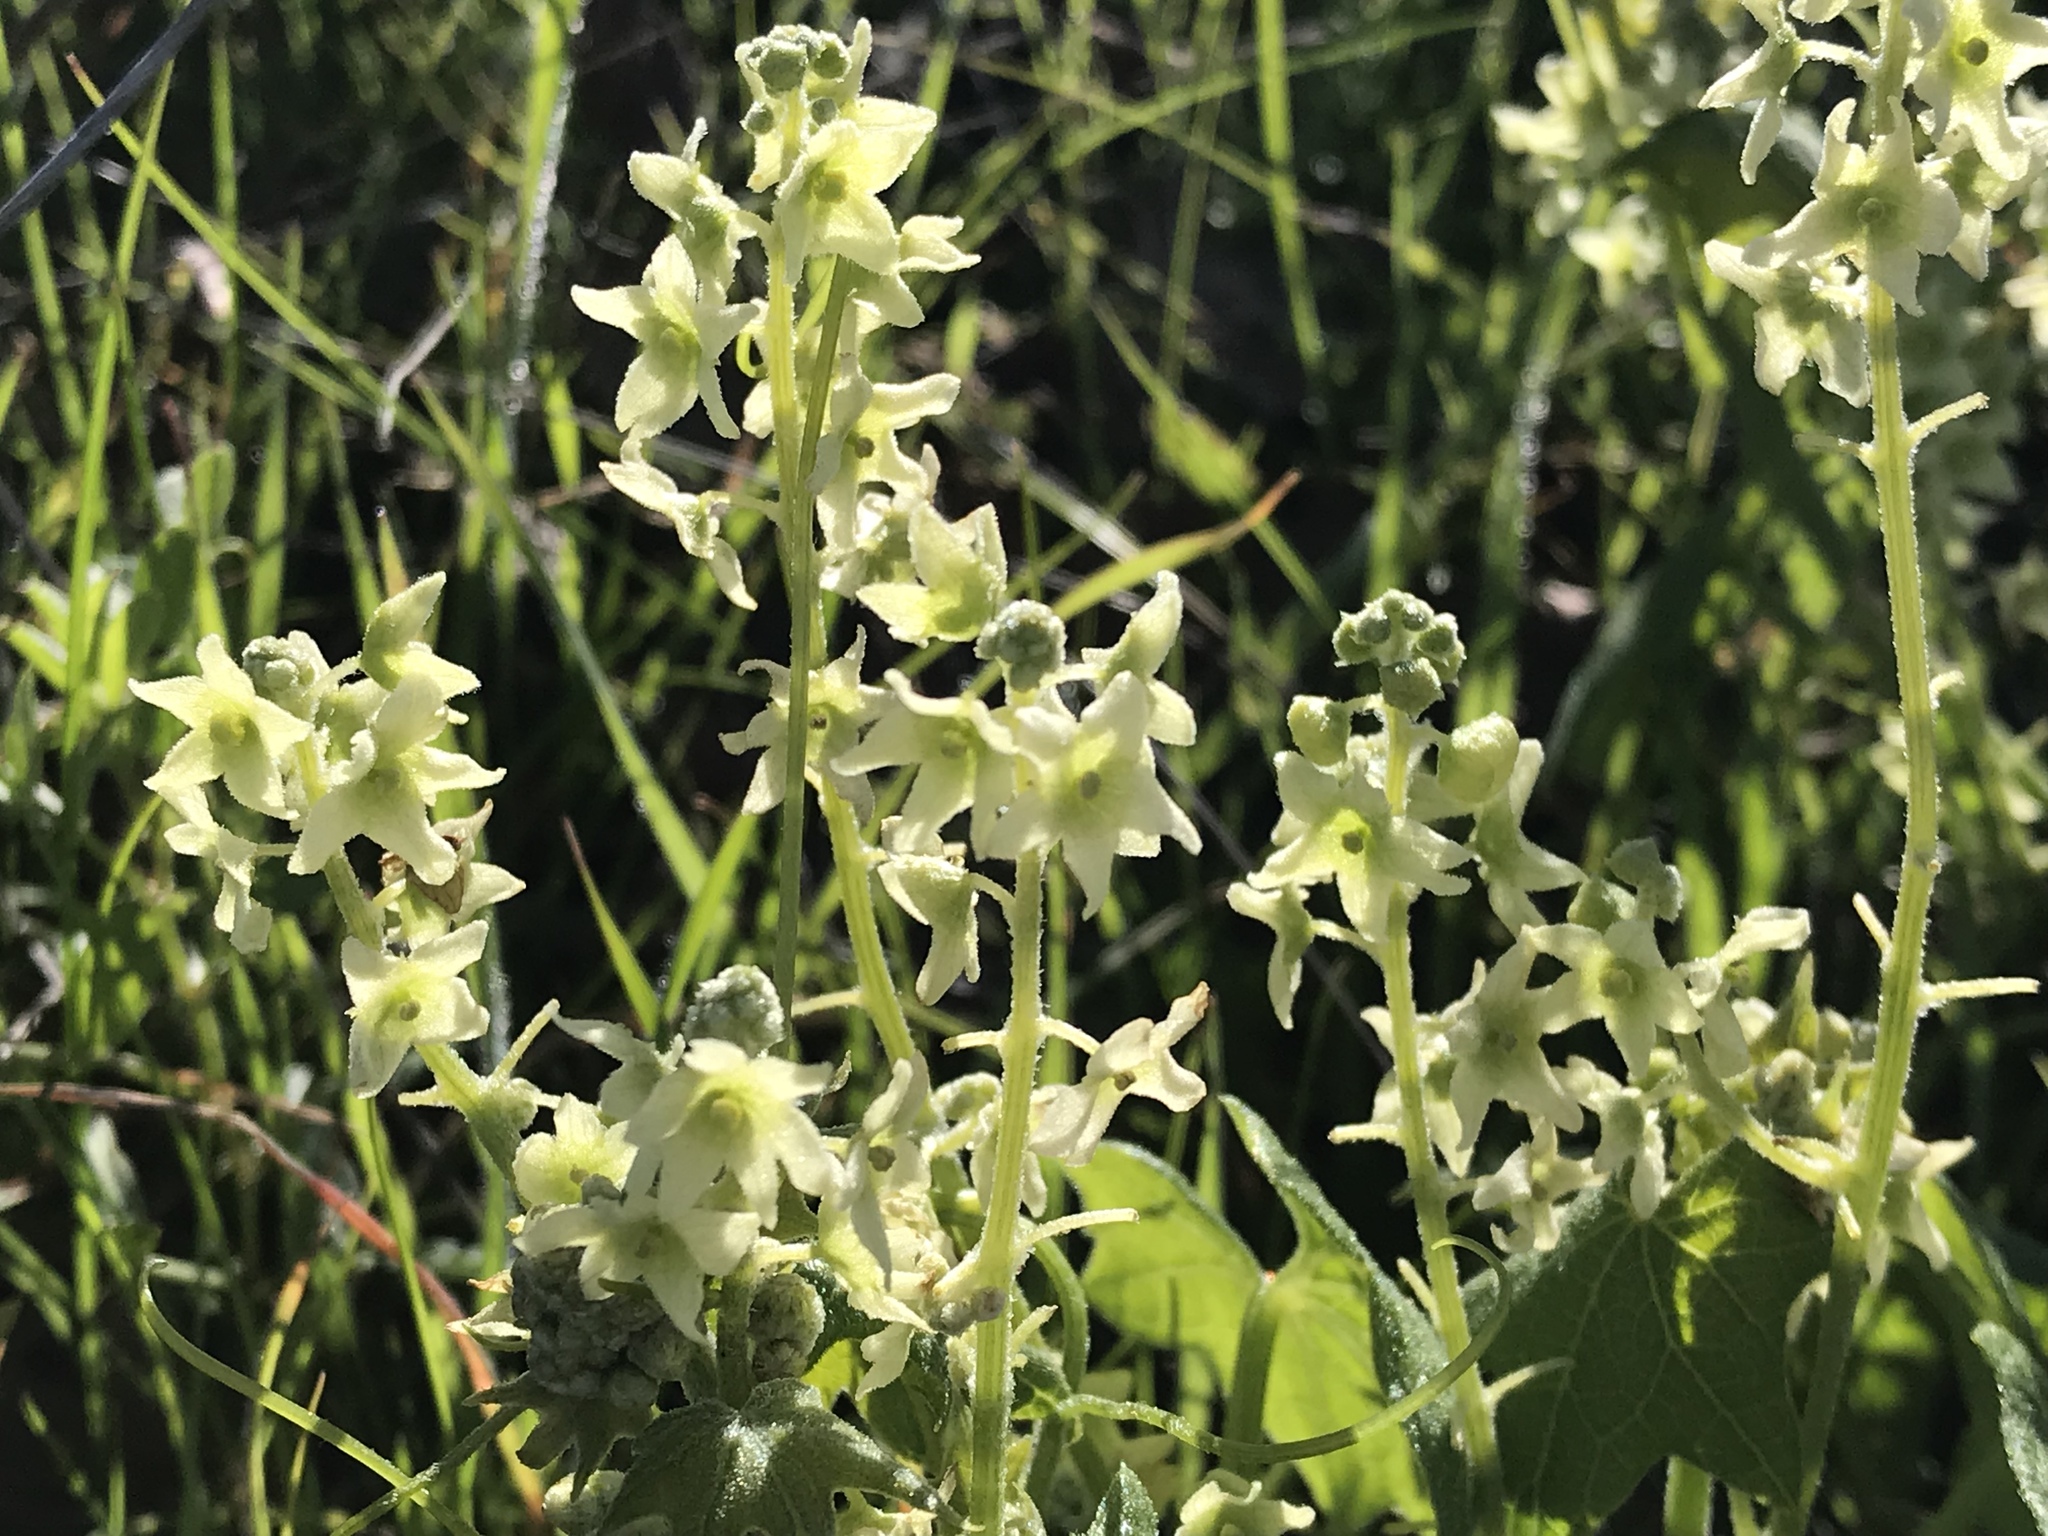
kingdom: Plantae
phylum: Tracheophyta
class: Magnoliopsida
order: Cucurbitales
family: Cucurbitaceae
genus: Marah
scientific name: Marah fabacea
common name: California manroot
